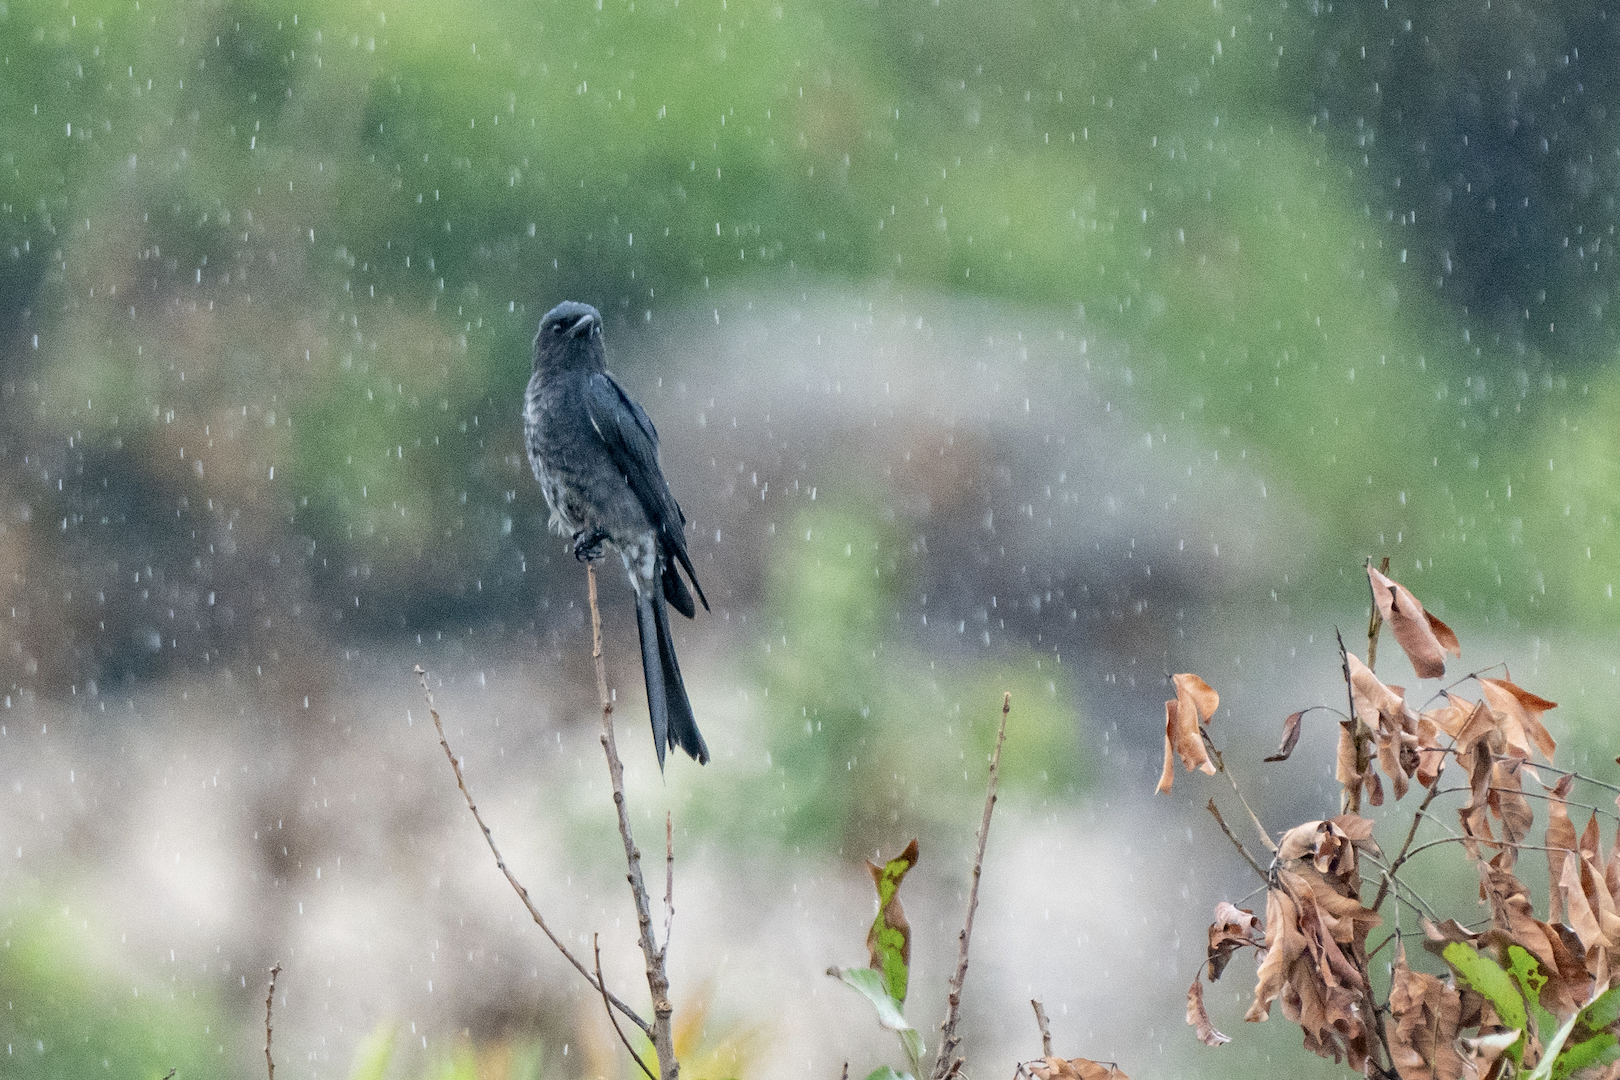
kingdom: Animalia
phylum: Chordata
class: Aves
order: Passeriformes
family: Dicruridae
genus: Dicrurus
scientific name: Dicrurus macrocercus
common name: Black drongo
